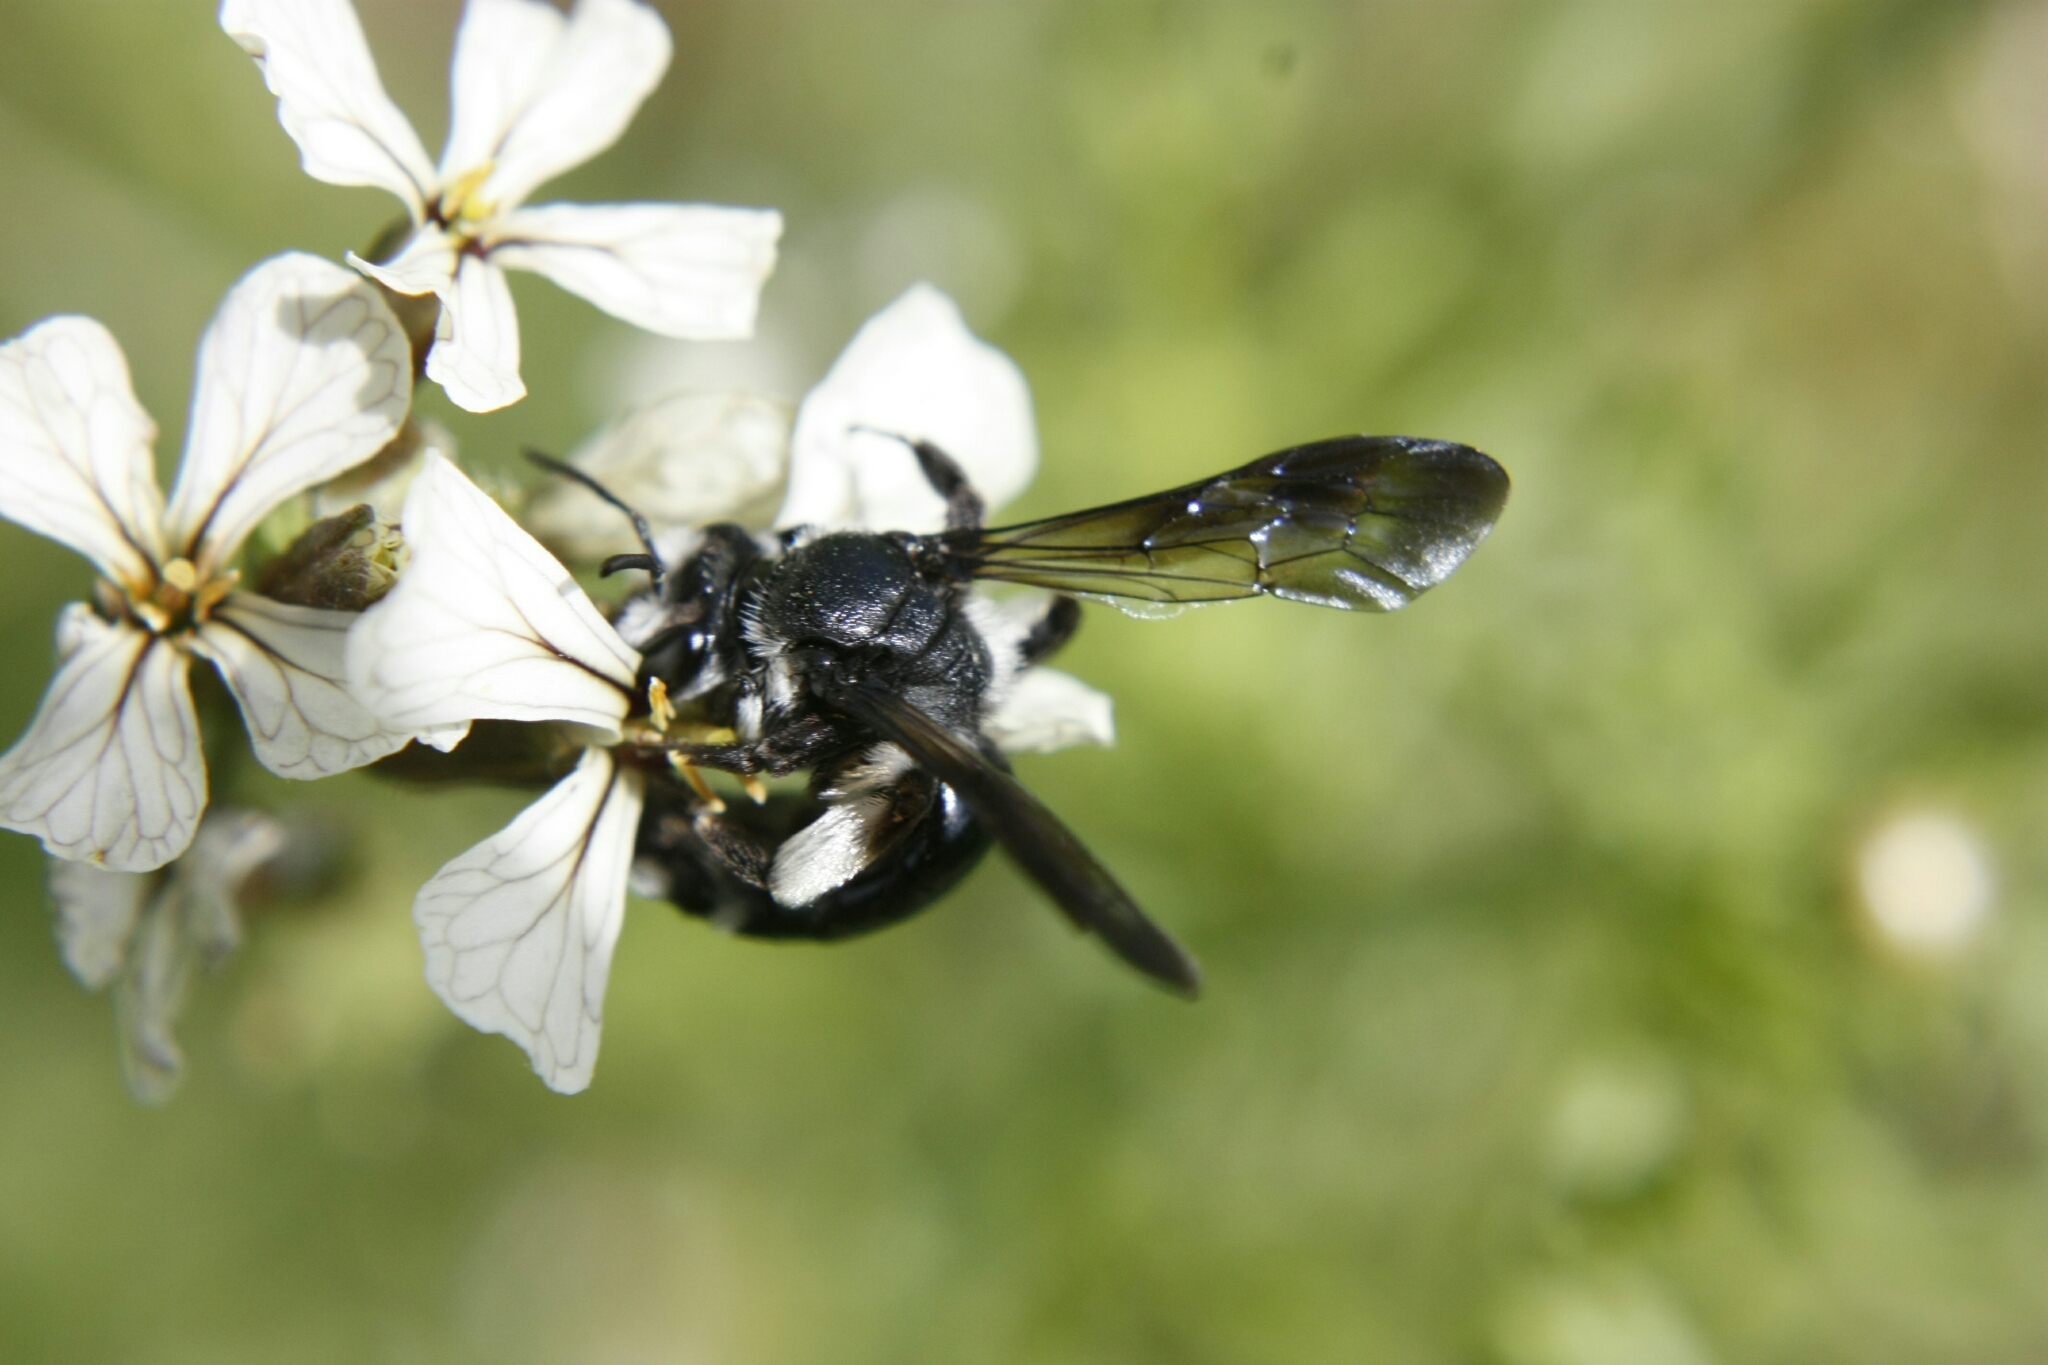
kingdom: Animalia
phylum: Arthropoda
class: Insecta
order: Hymenoptera
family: Andrenidae
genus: Andrena
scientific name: Andrena agilissima
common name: Violet-winged mining bee
